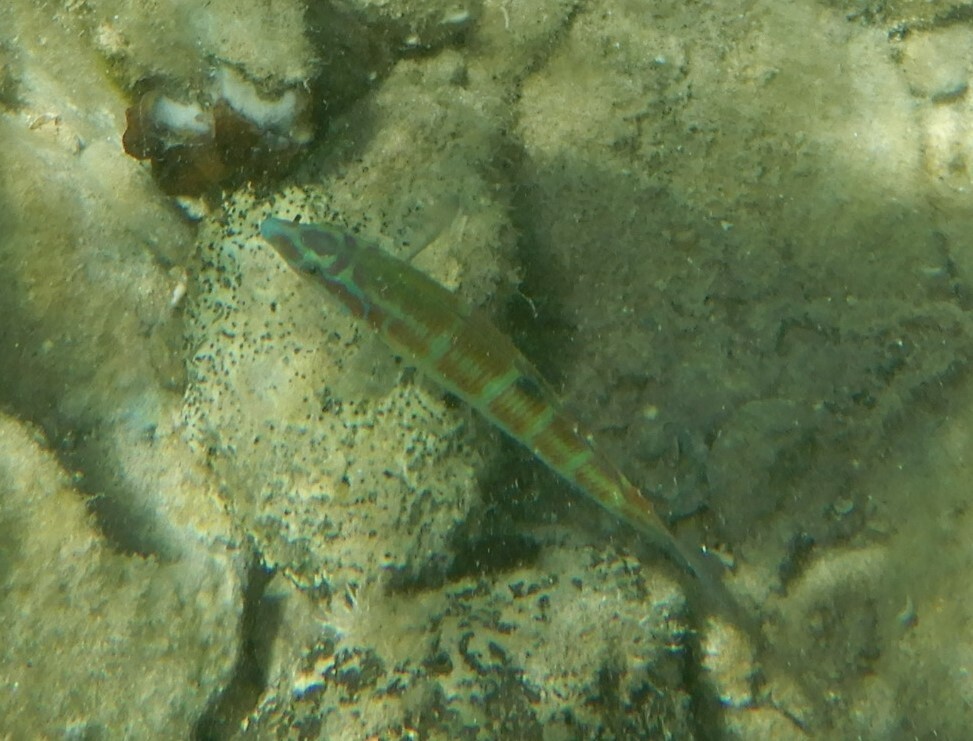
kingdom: Animalia
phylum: Chordata
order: Perciformes
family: Labridae
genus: Thalassoma
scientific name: Thalassoma pavo
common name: Ornate wrasse
